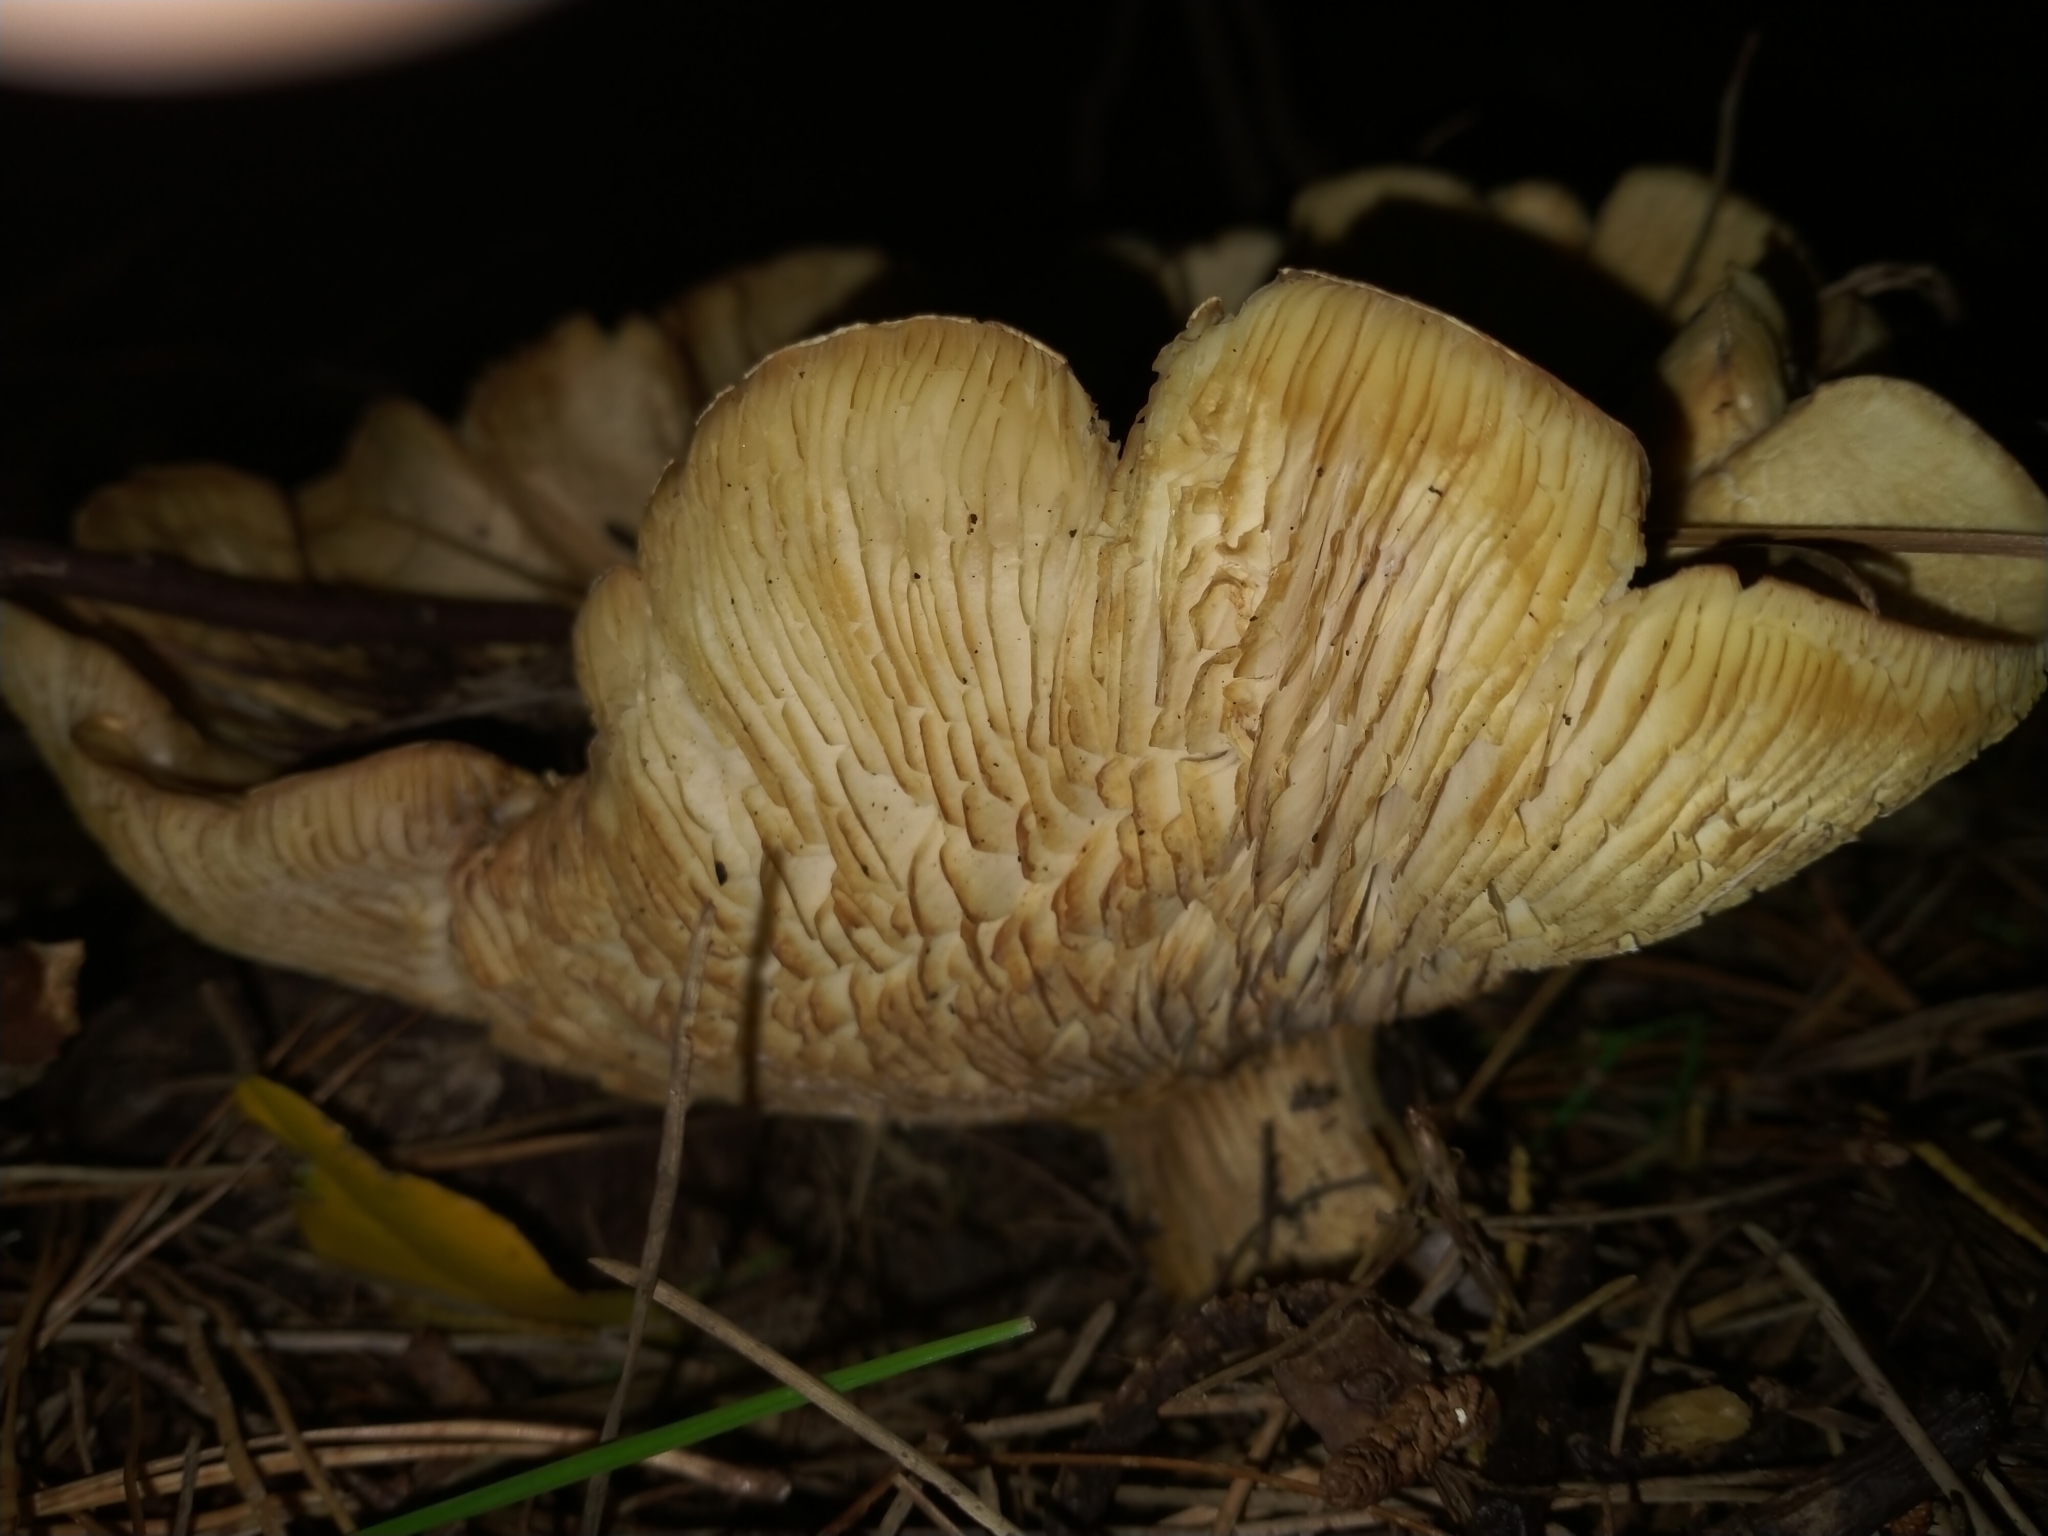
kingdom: Fungi
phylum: Basidiomycota
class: Agaricomycetes
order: Agaricales
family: Tricholomataceae
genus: Clitocybe
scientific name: Clitocybe nebularis
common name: Clouded agaric
